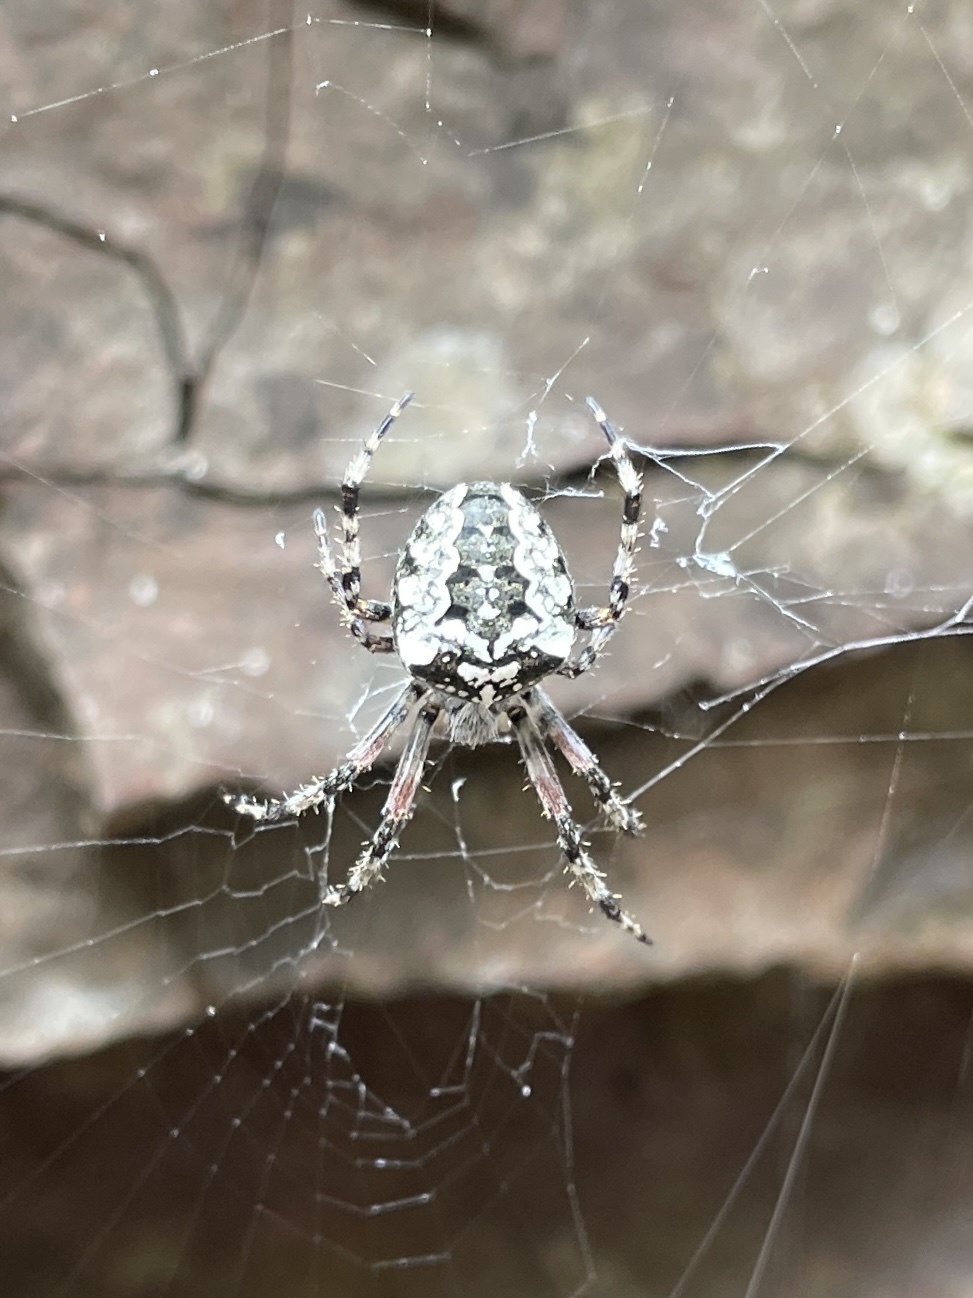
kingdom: Animalia
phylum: Arthropoda
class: Arachnida
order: Araneae
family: Araneidae
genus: Araneus
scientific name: Araneus nordmanni
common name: Nordmann's orbweaver
